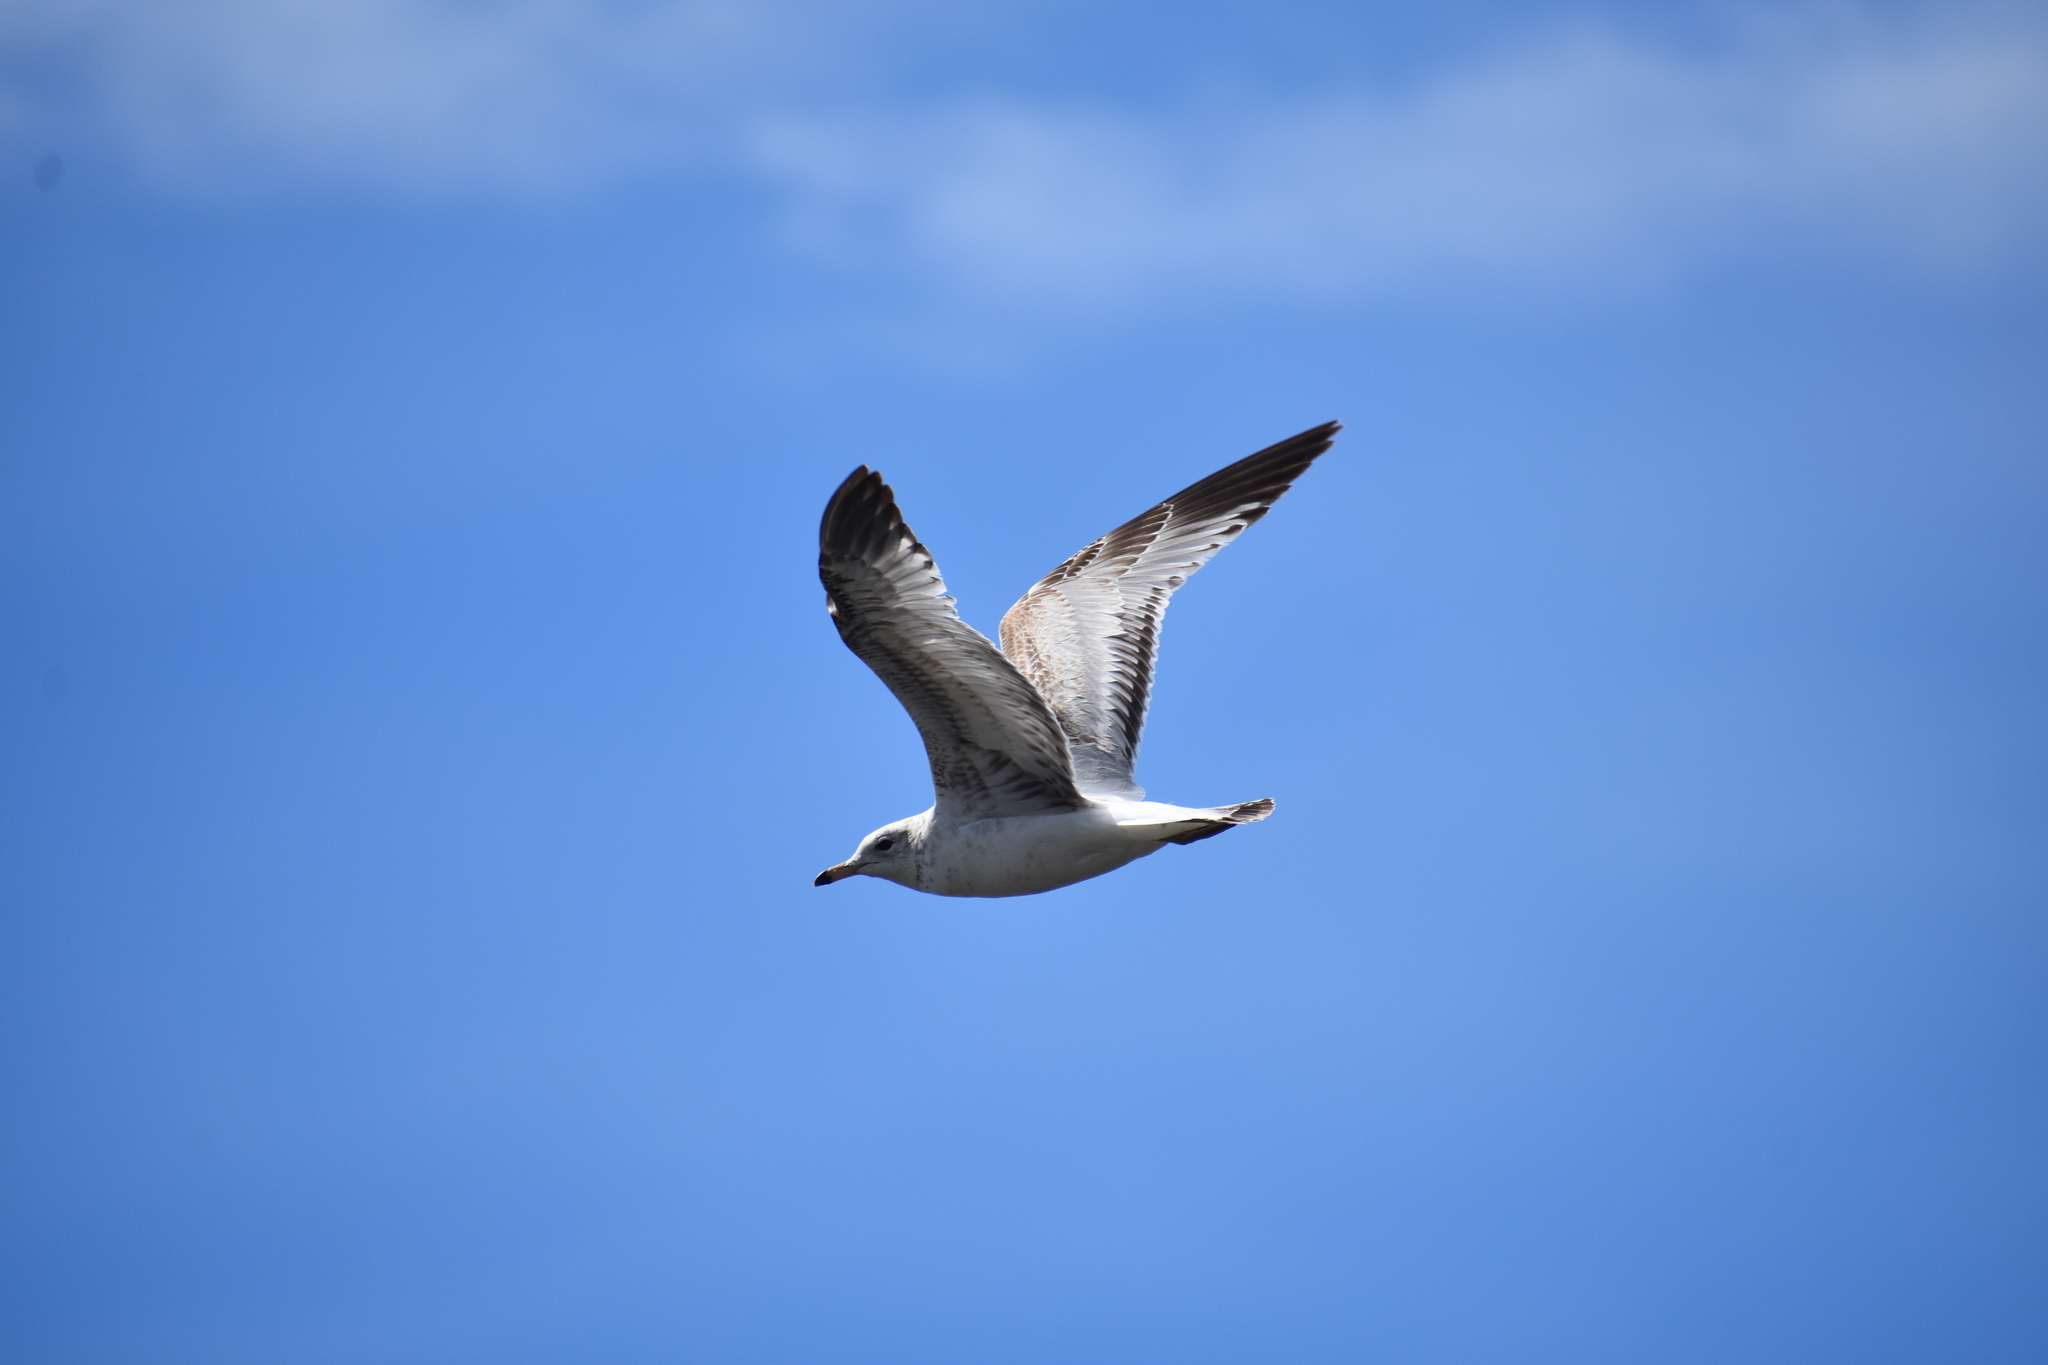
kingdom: Animalia
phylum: Chordata
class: Aves
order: Charadriiformes
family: Laridae
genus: Larus
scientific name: Larus delawarensis
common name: Ring-billed gull
